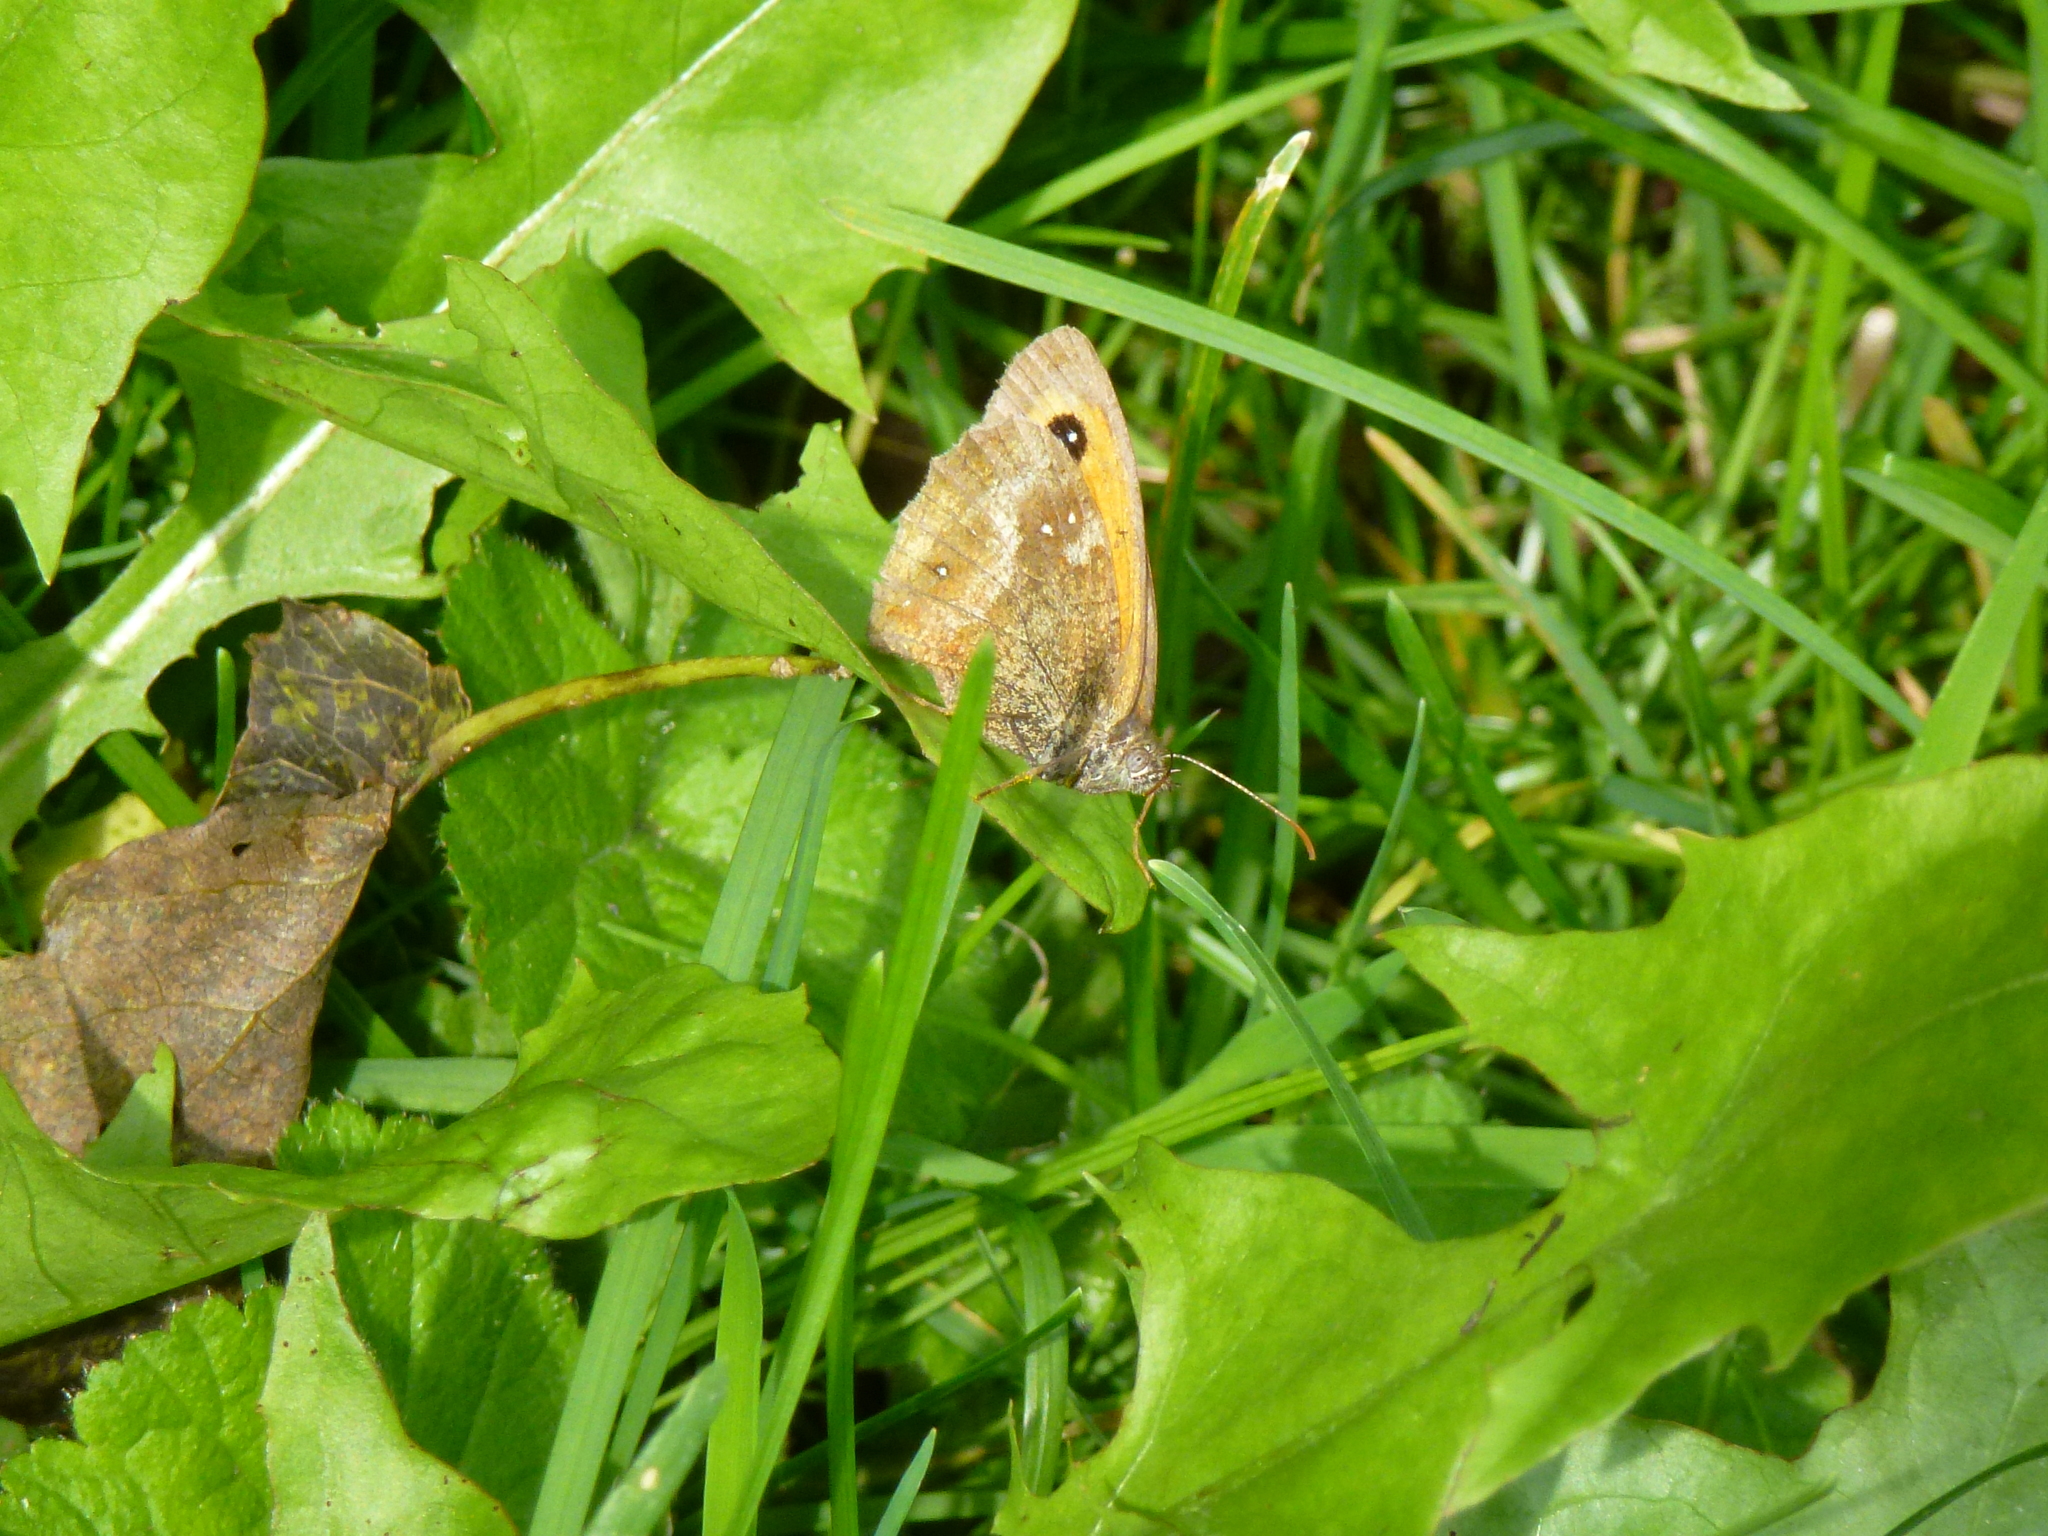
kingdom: Animalia
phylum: Arthropoda
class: Insecta
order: Lepidoptera
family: Nymphalidae
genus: Pyronia
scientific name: Pyronia tithonus
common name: Gatekeeper
